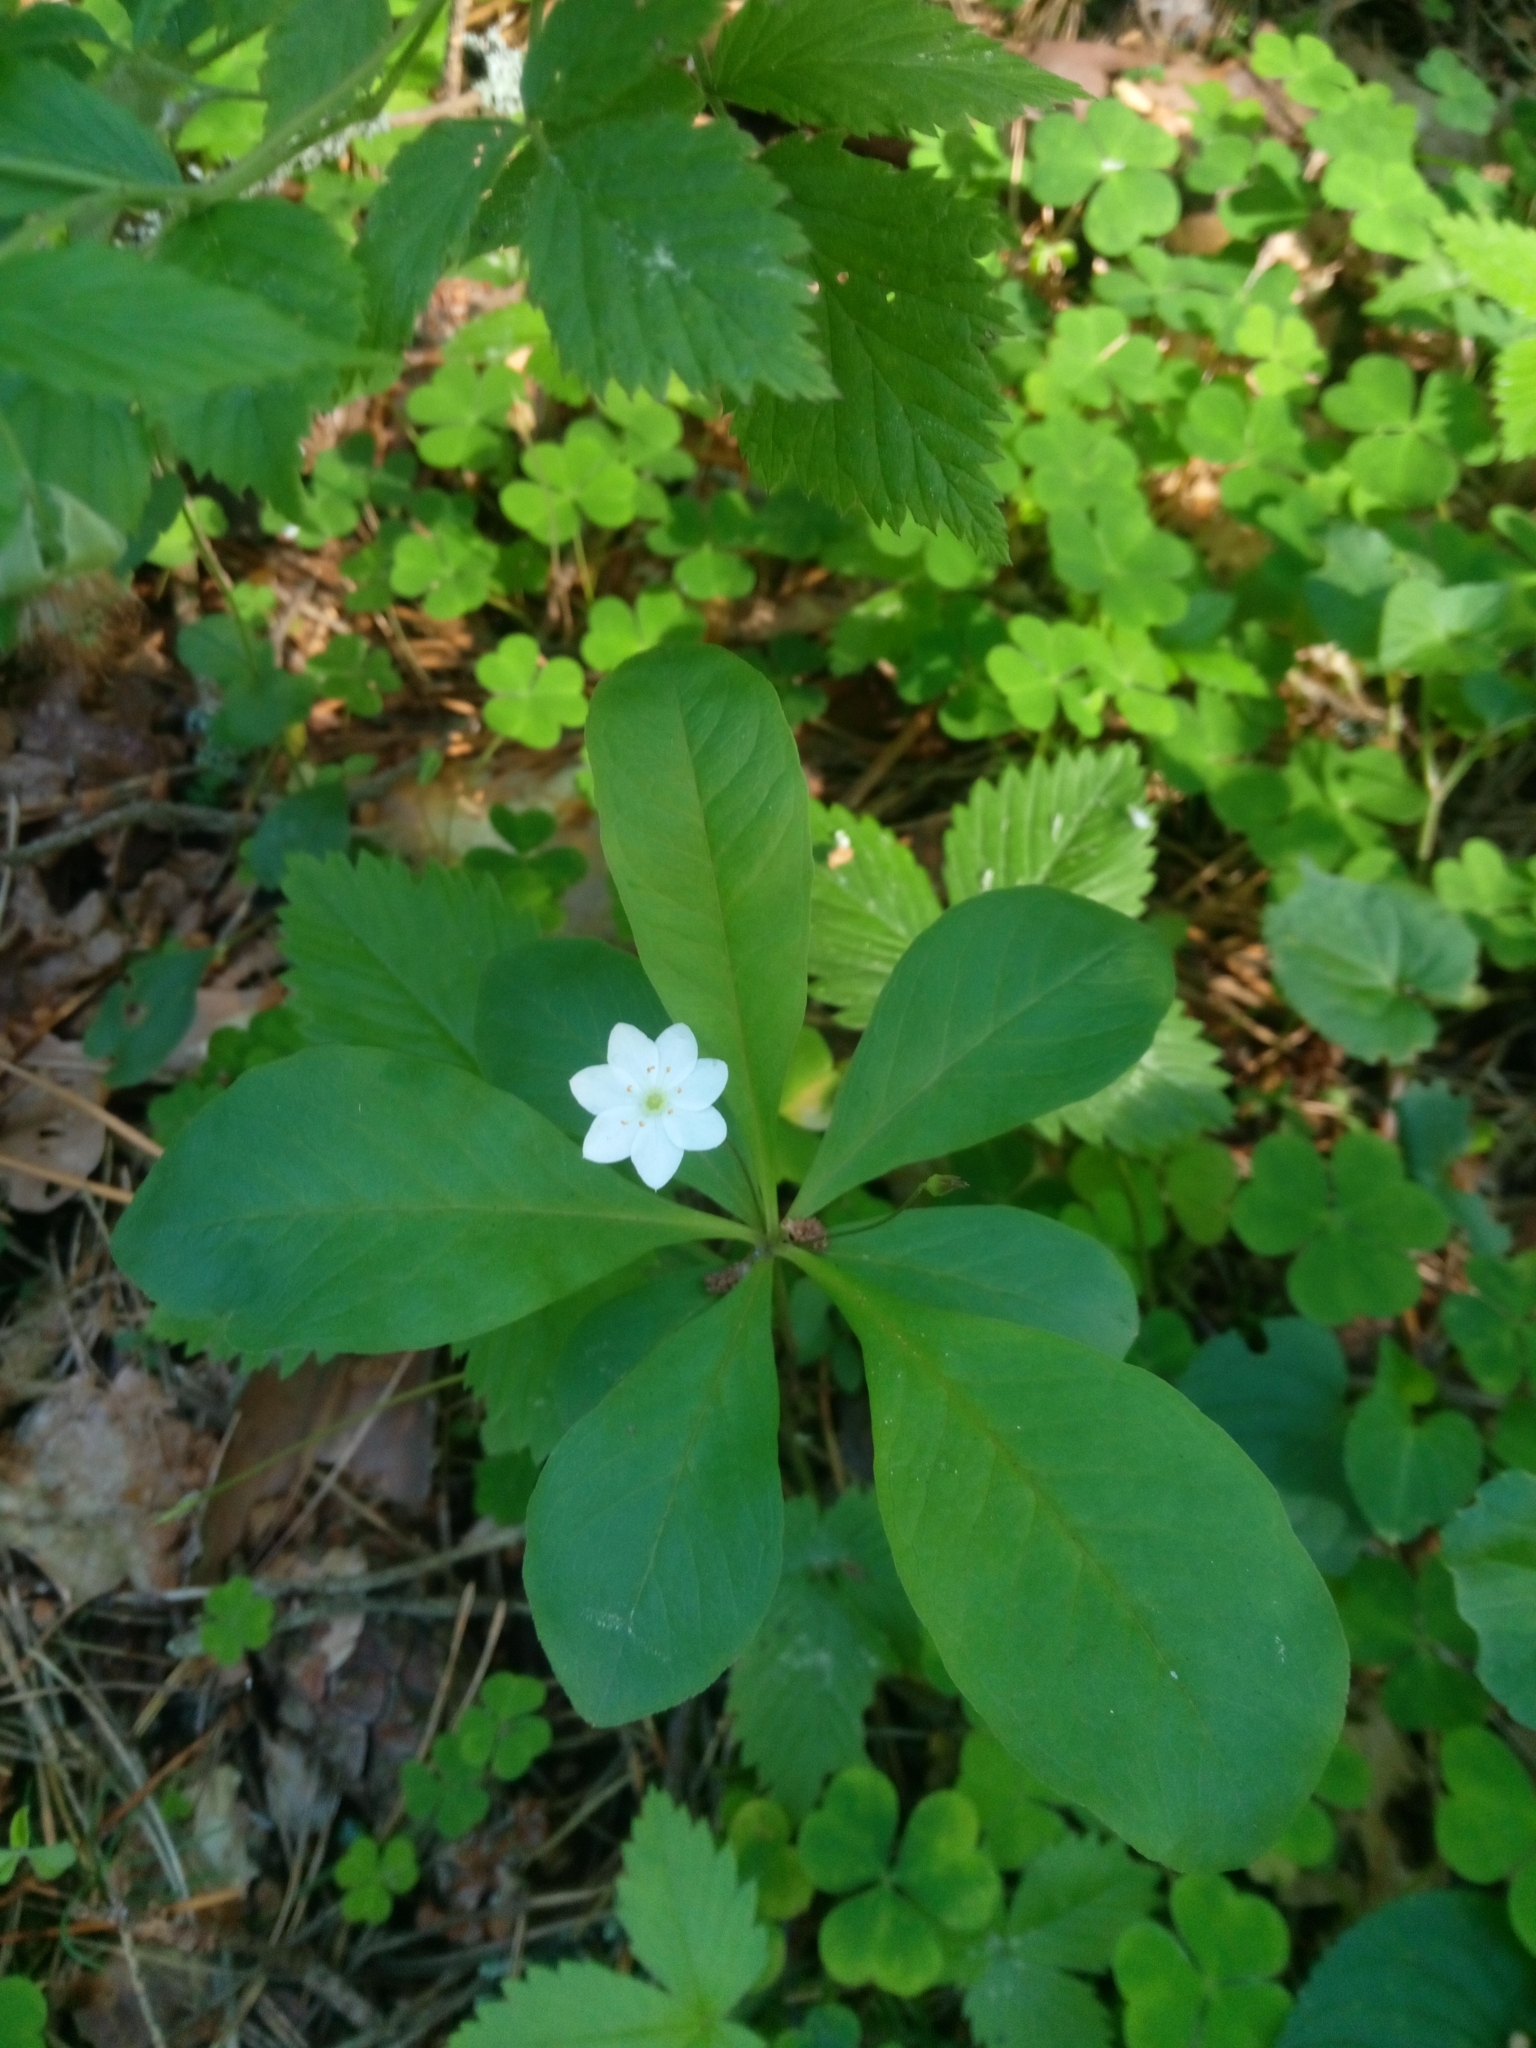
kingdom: Plantae
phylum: Tracheophyta
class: Magnoliopsida
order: Ericales
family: Primulaceae
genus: Lysimachia
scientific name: Lysimachia europaea
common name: Arctic starflower
